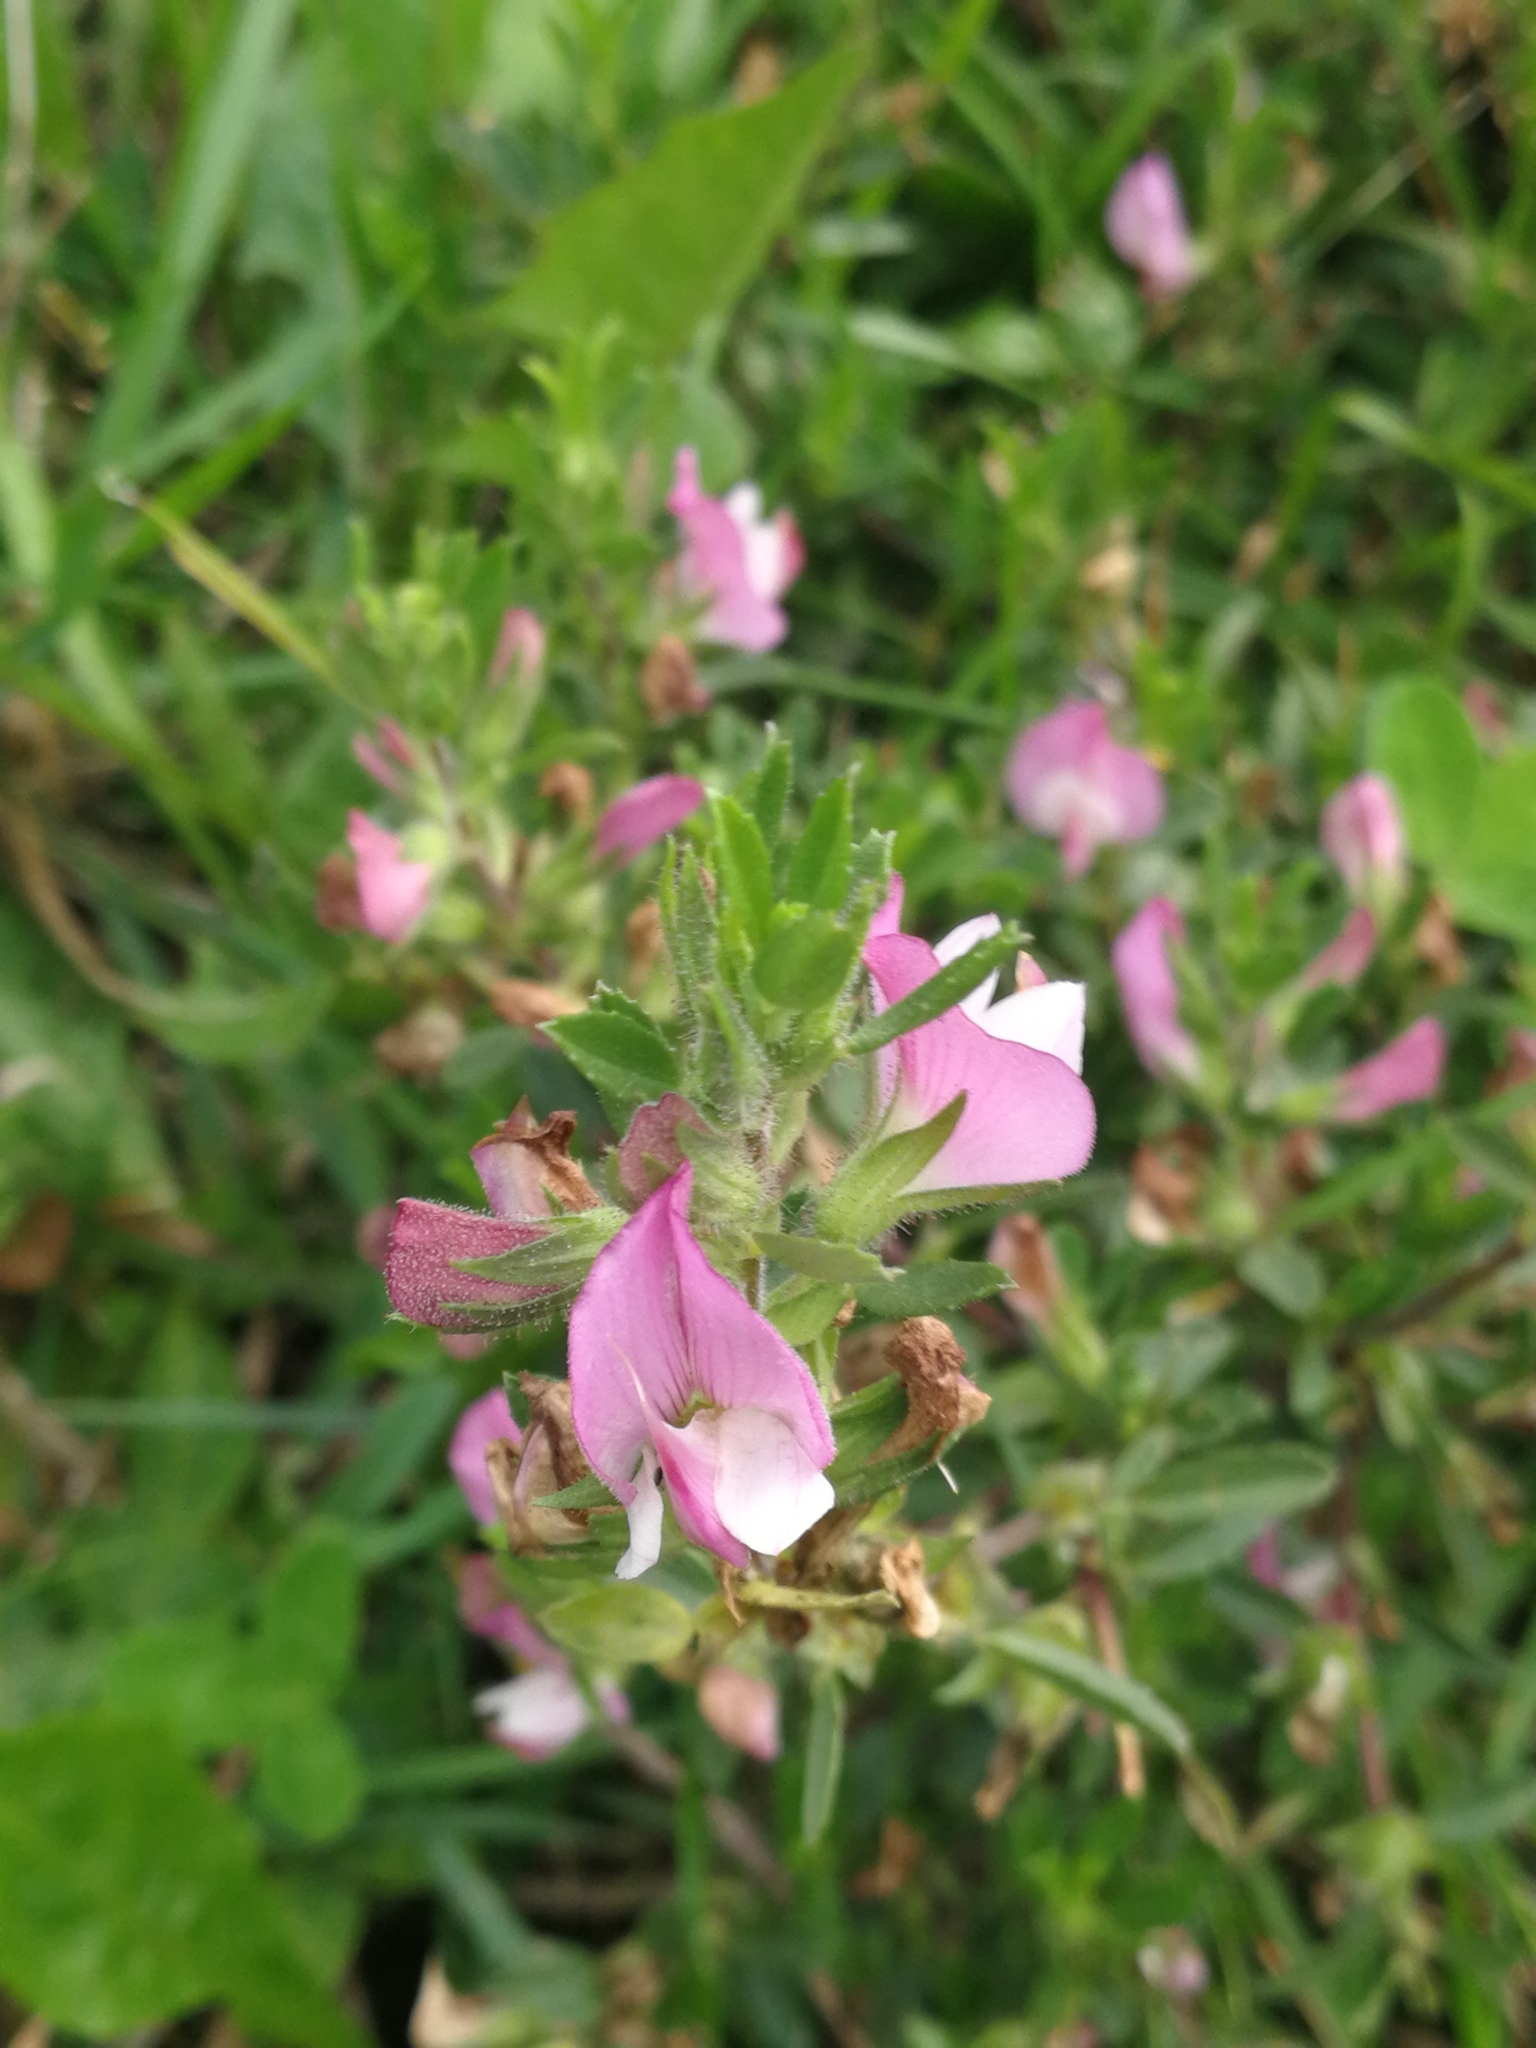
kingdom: Plantae
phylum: Tracheophyta
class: Magnoliopsida
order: Fabales
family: Fabaceae
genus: Ononis
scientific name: Ononis spinosa
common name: Spiny restharrow
